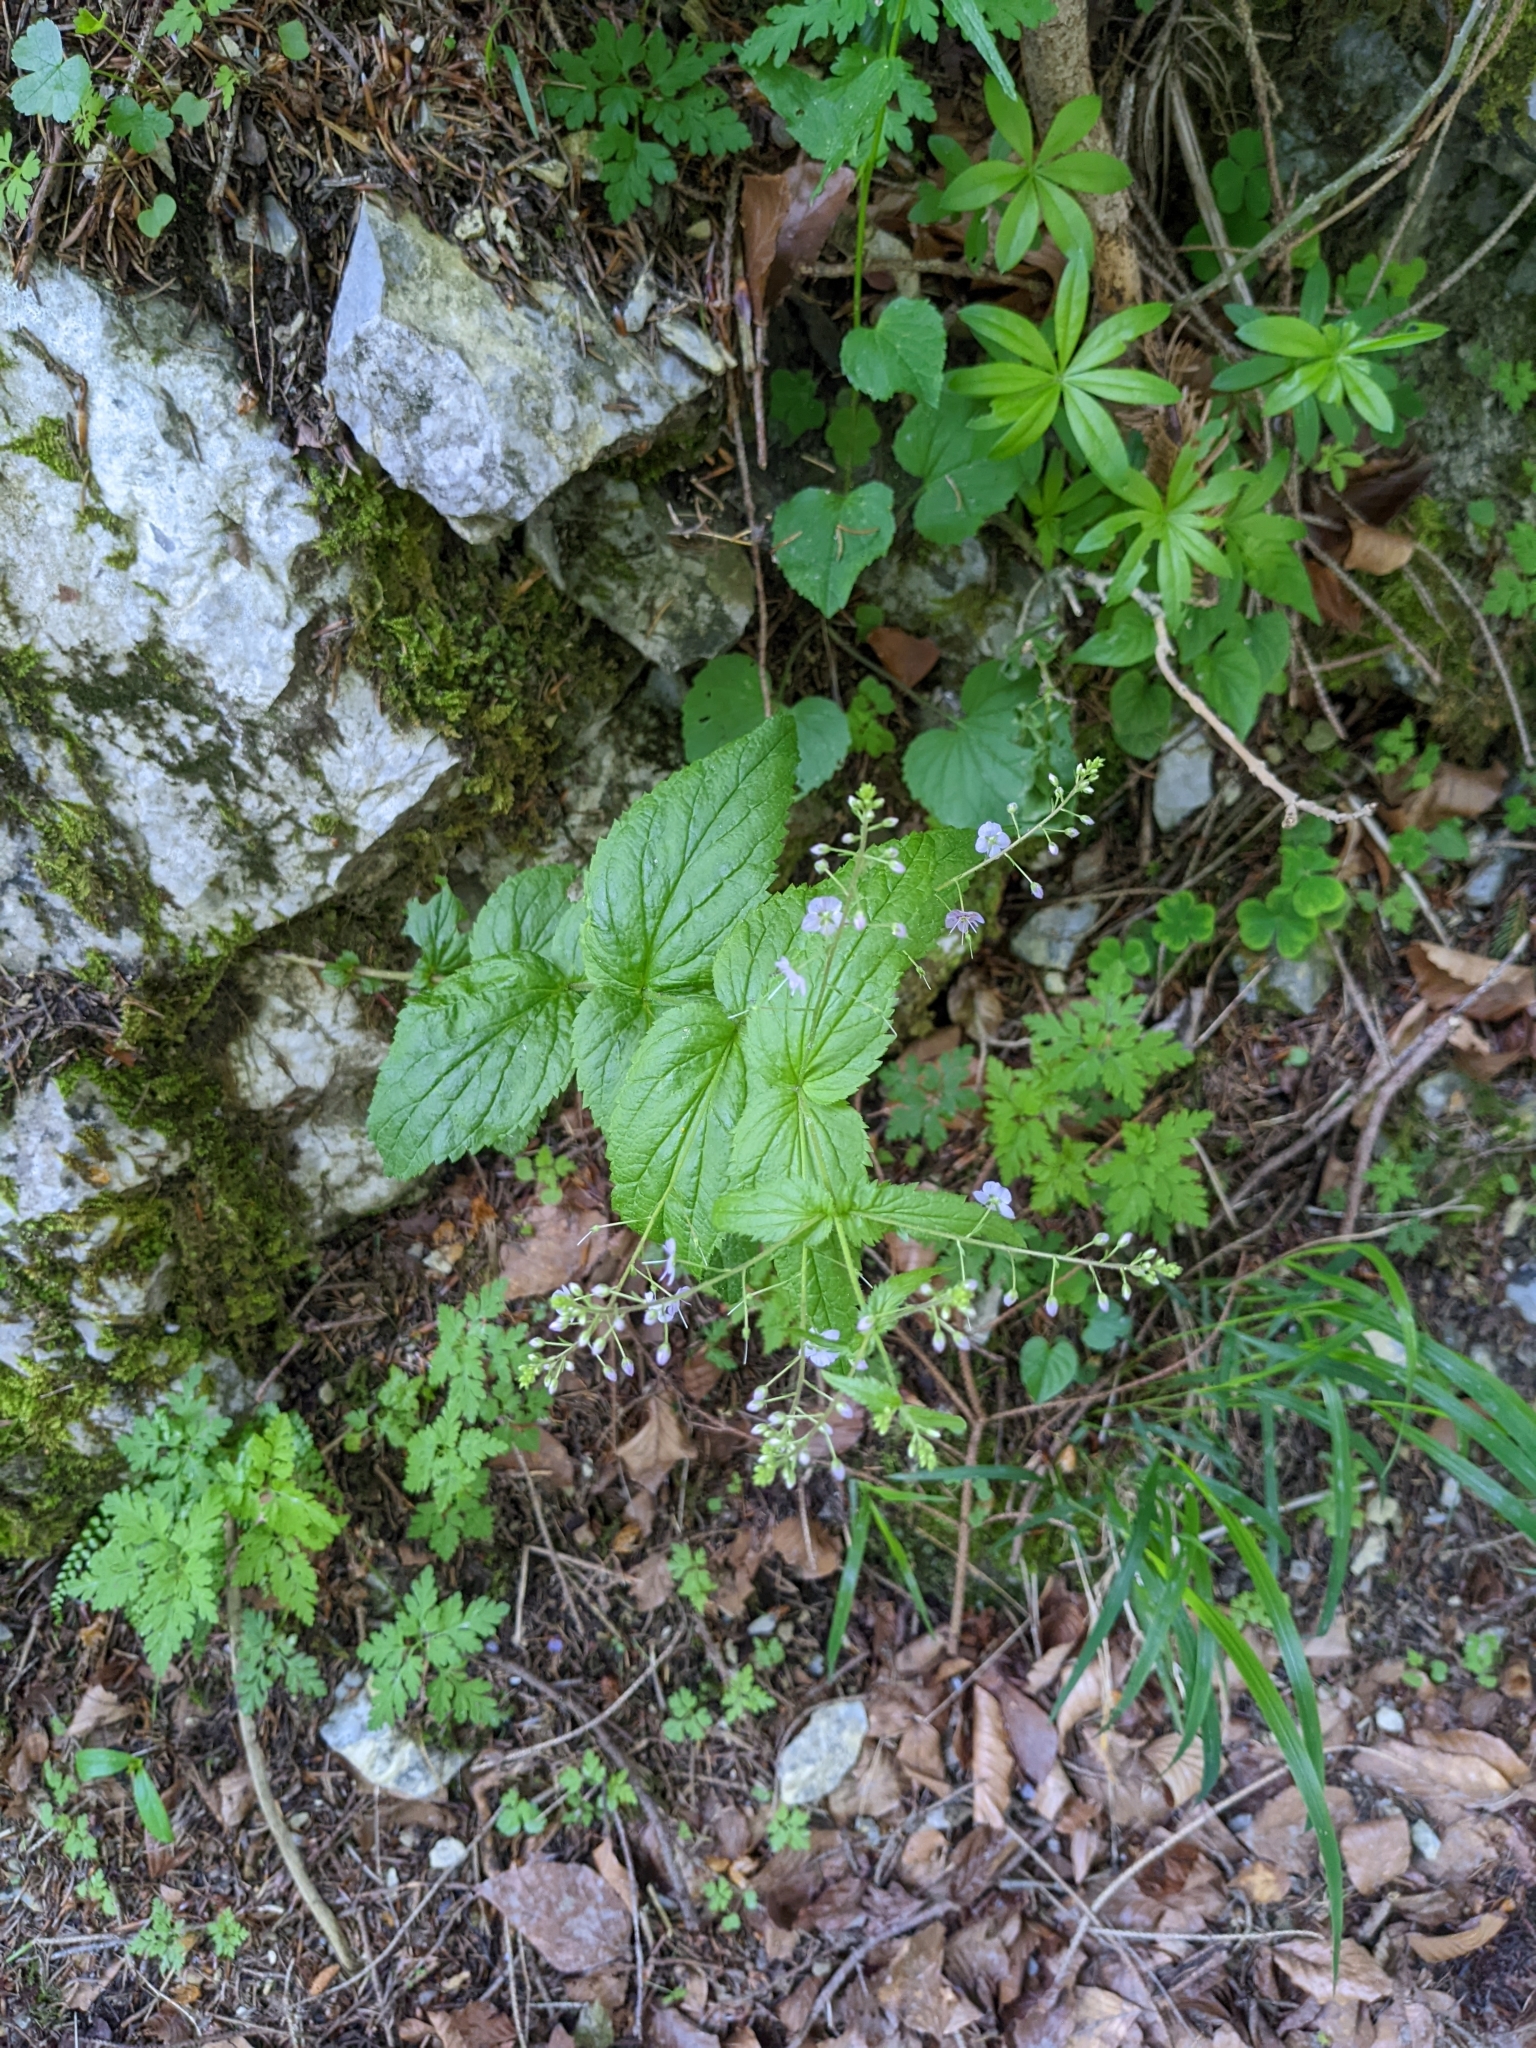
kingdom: Plantae
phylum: Tracheophyta
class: Magnoliopsida
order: Lamiales
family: Plantaginaceae
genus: Veronica
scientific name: Veronica urticifolia
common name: Nettle-leaf speedwell
